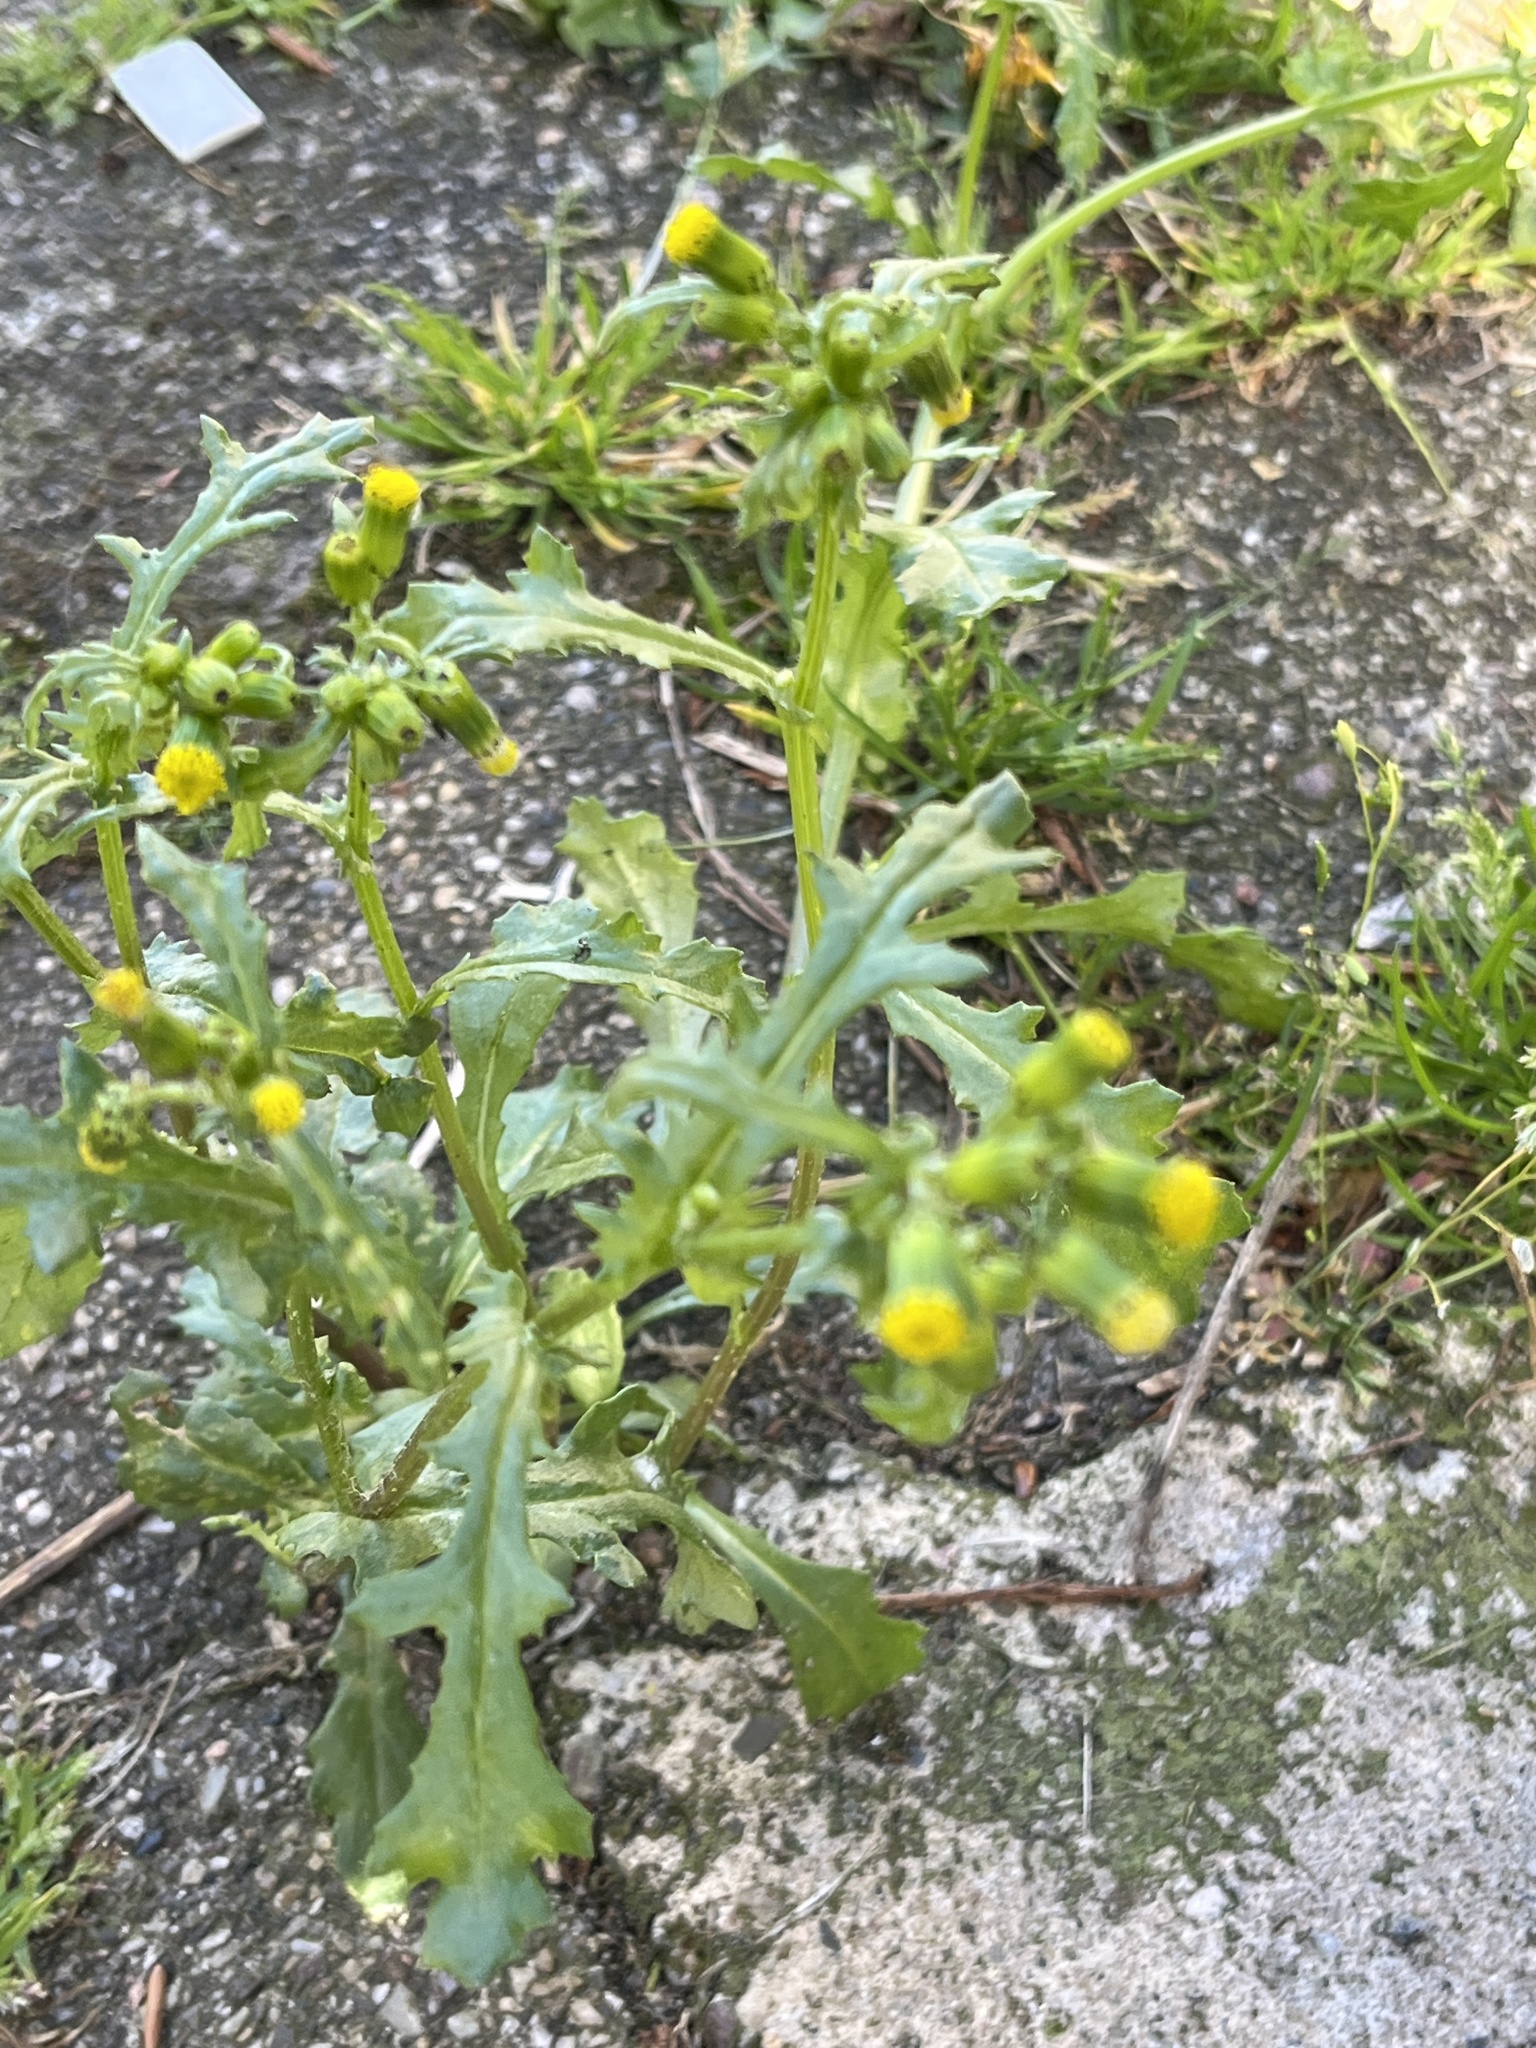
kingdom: Plantae
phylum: Tracheophyta
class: Magnoliopsida
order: Asterales
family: Asteraceae
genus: Senecio
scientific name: Senecio vulgaris
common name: Old-man-in-the-spring
